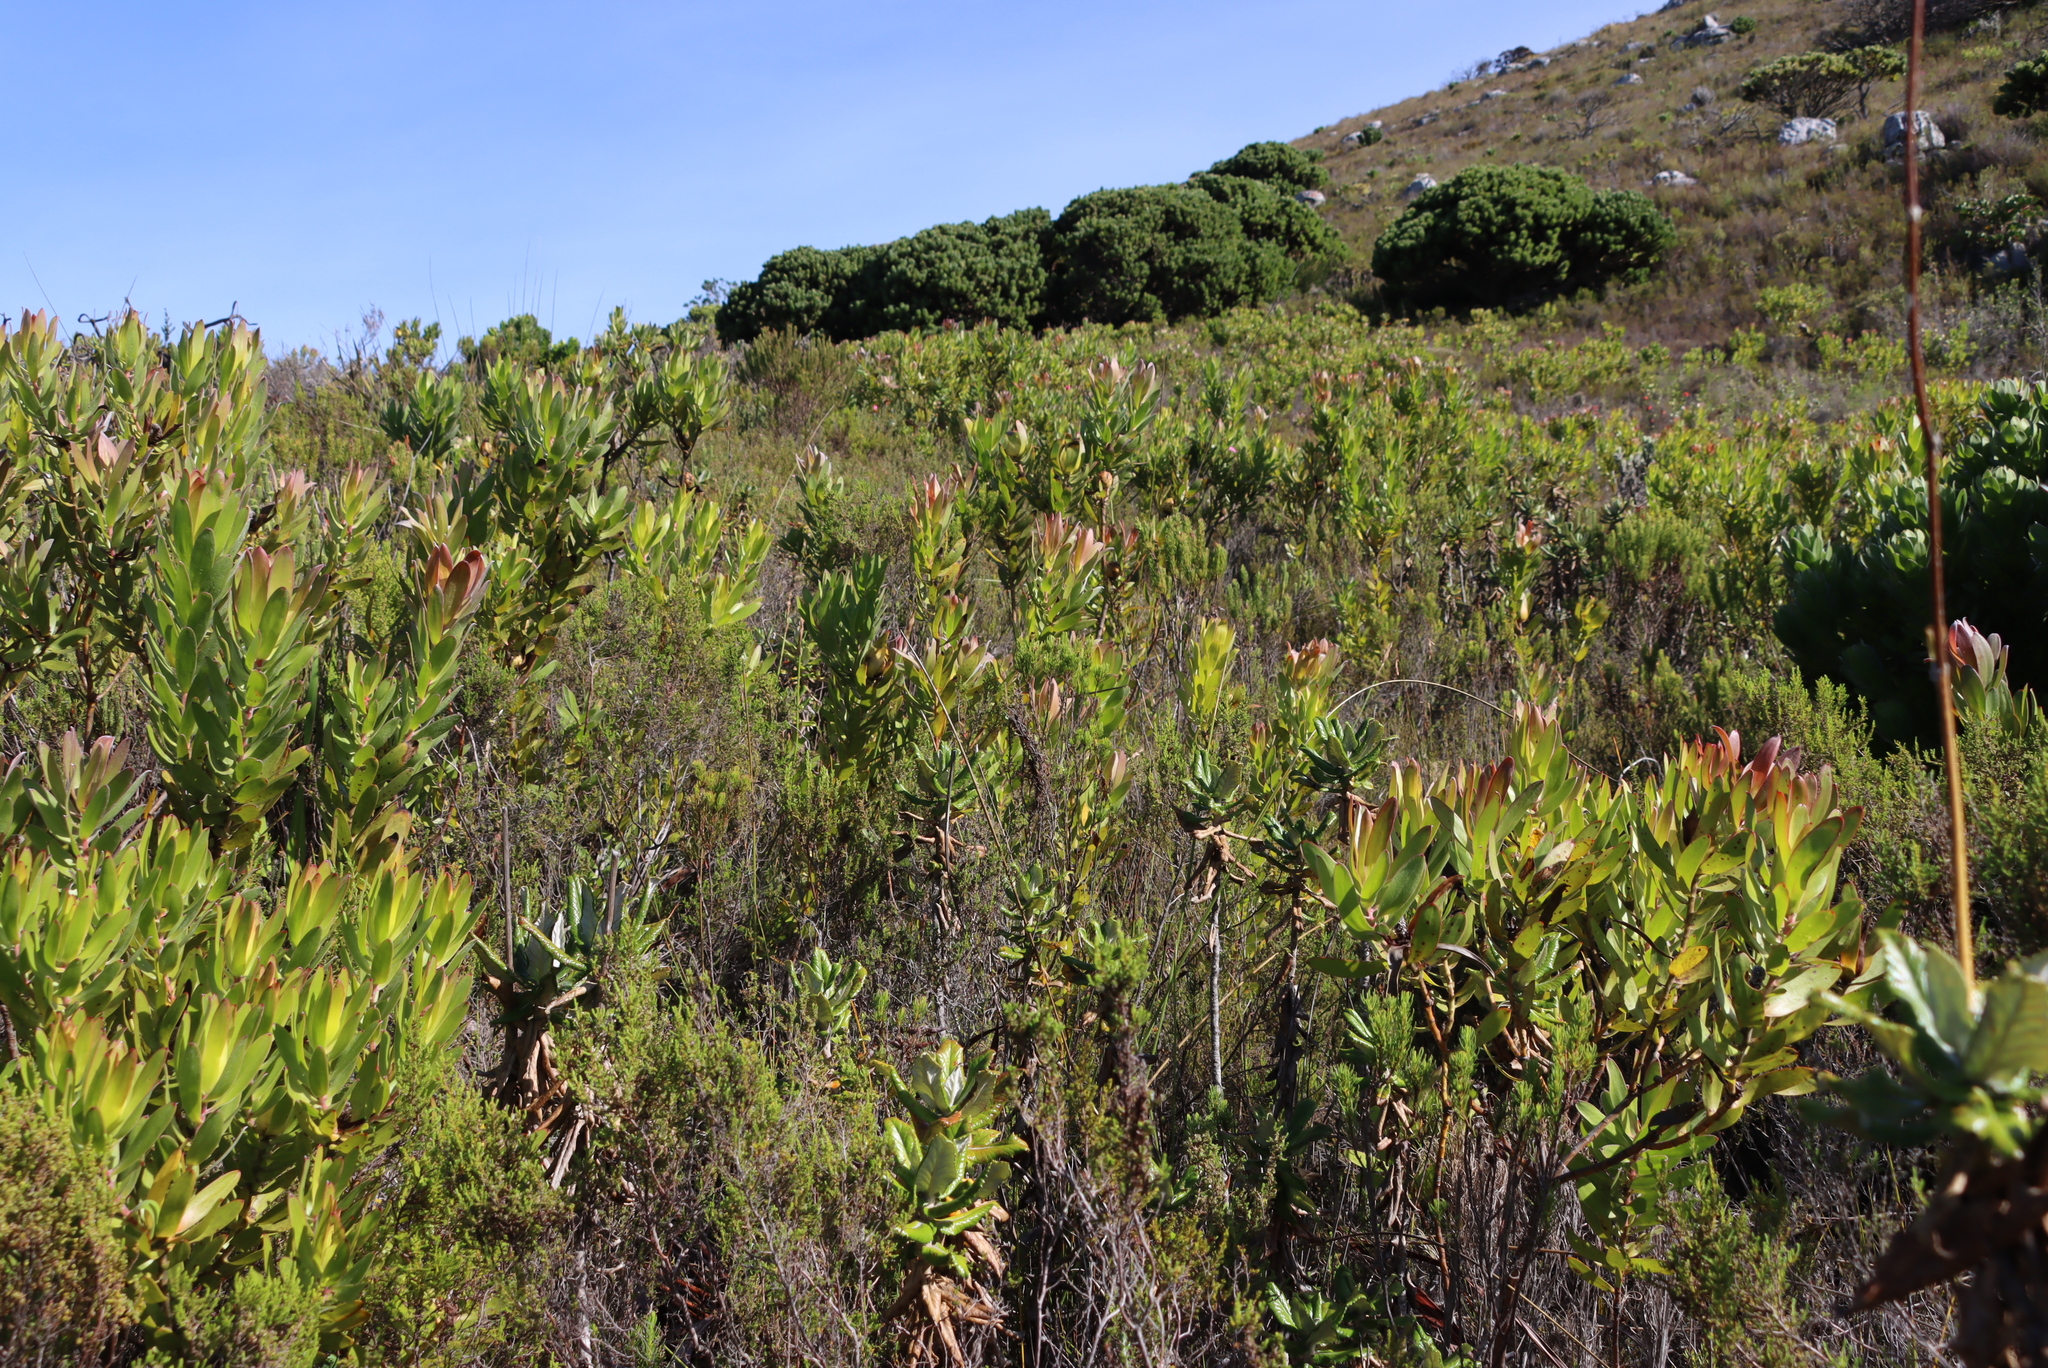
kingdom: Plantae
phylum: Tracheophyta
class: Magnoliopsida
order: Proteales
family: Proteaceae
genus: Leucadendron
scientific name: Leucadendron laureolum
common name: Golden sunshinebush
